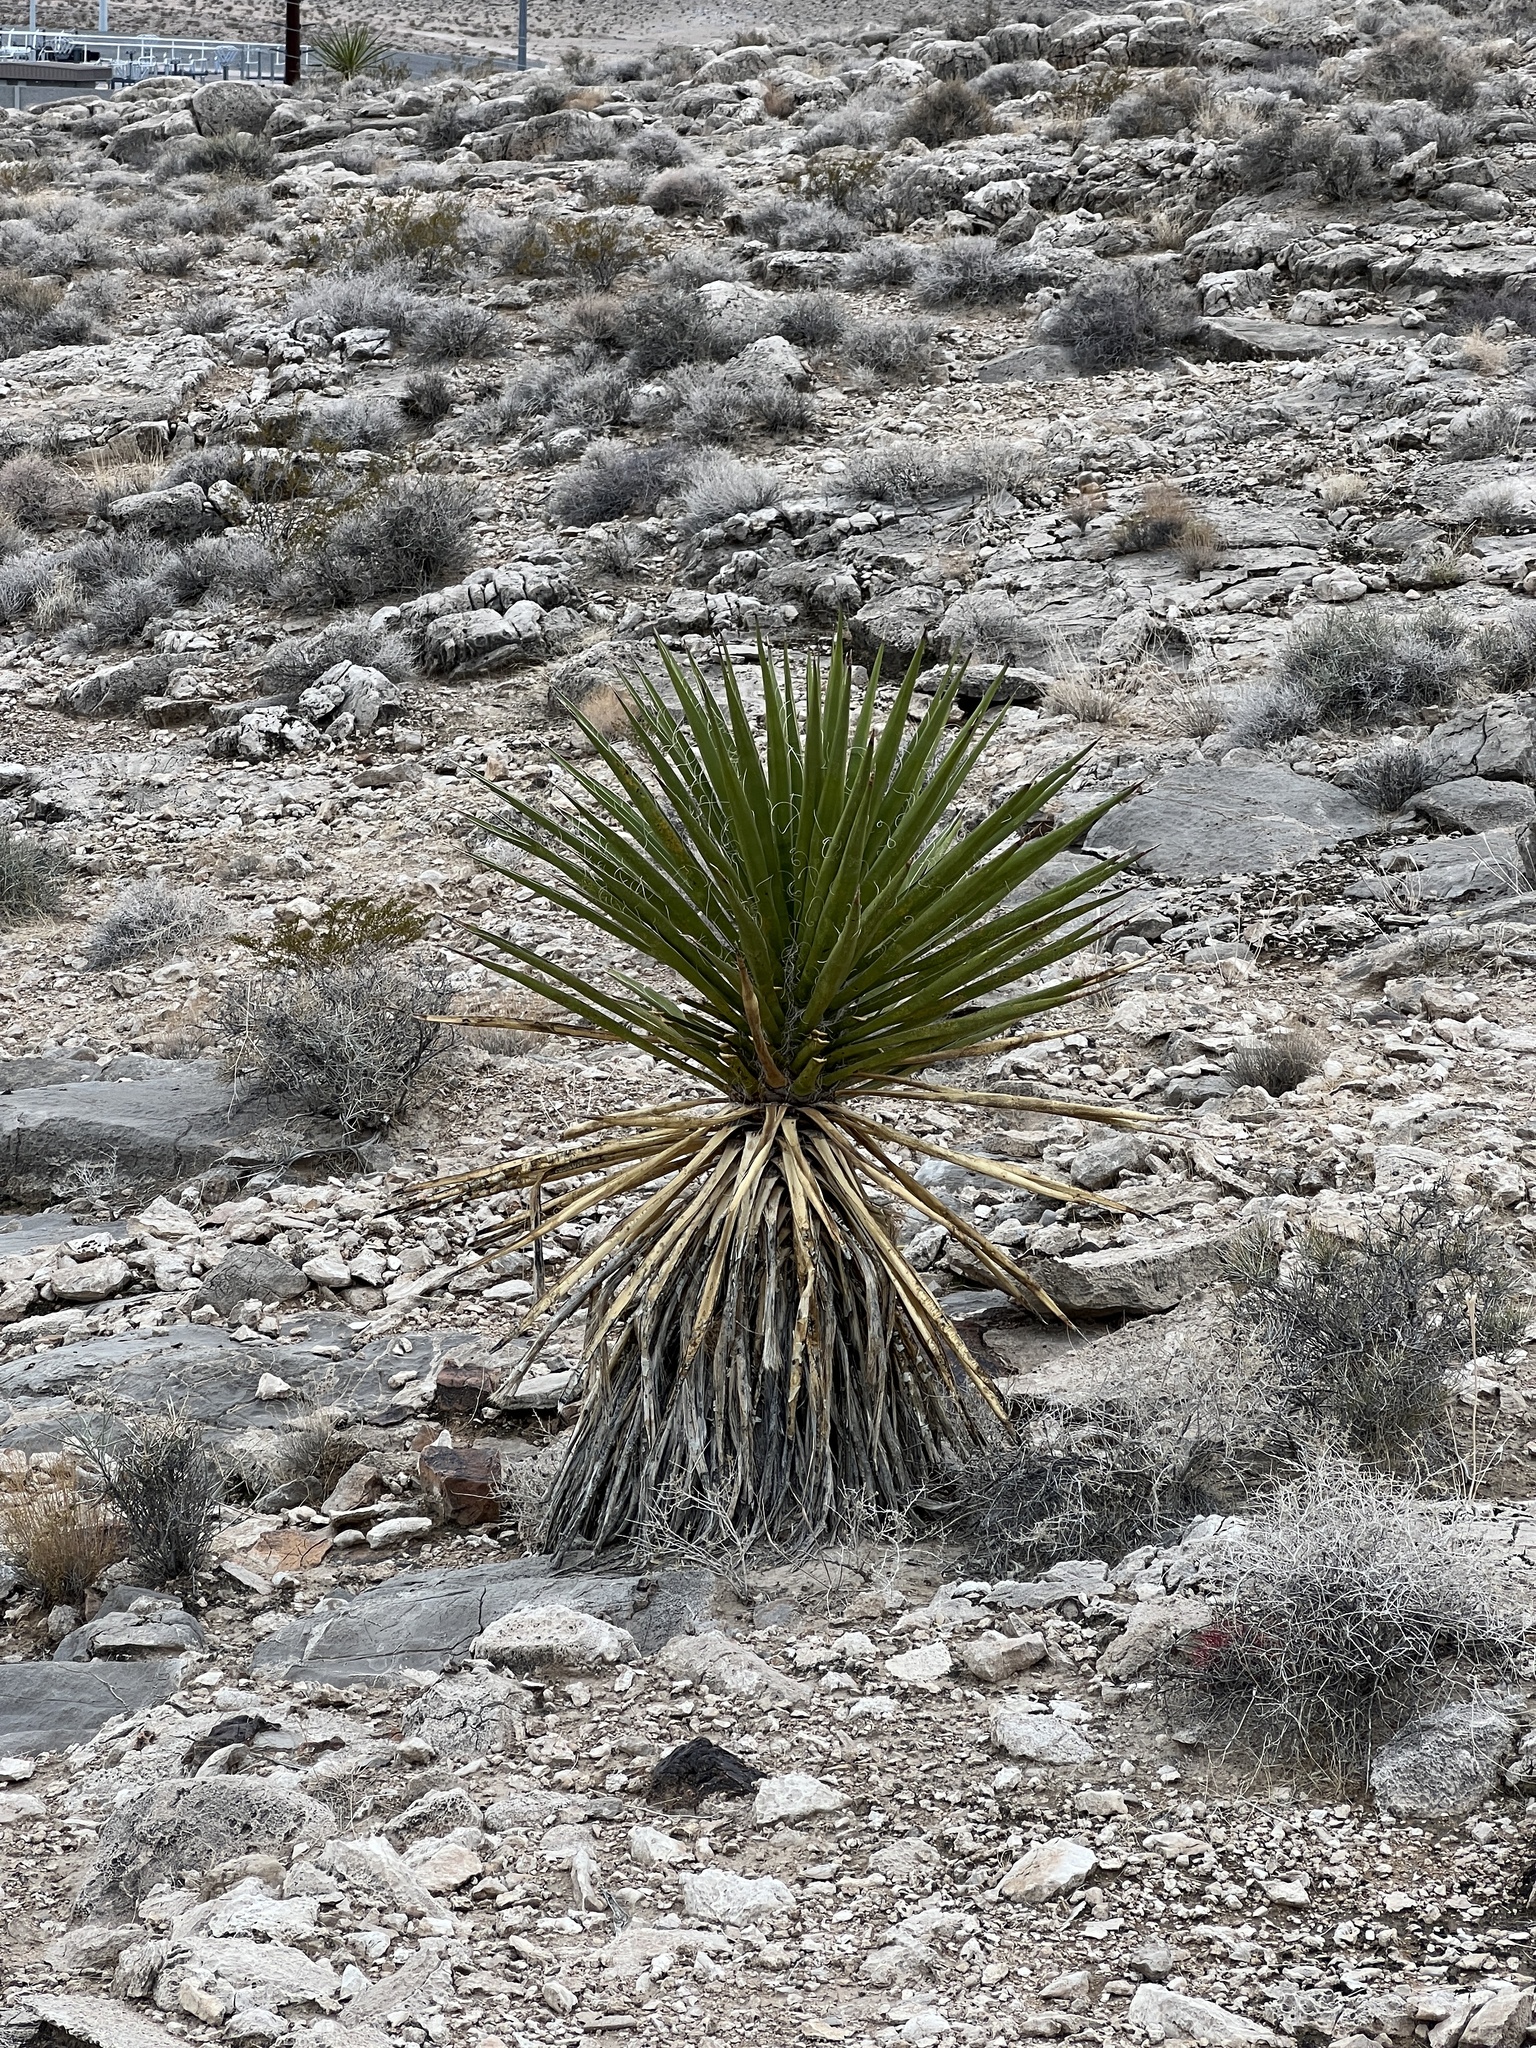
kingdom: Plantae
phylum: Tracheophyta
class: Liliopsida
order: Asparagales
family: Asparagaceae
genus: Yucca
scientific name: Yucca schidigera
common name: Mojave yucca
